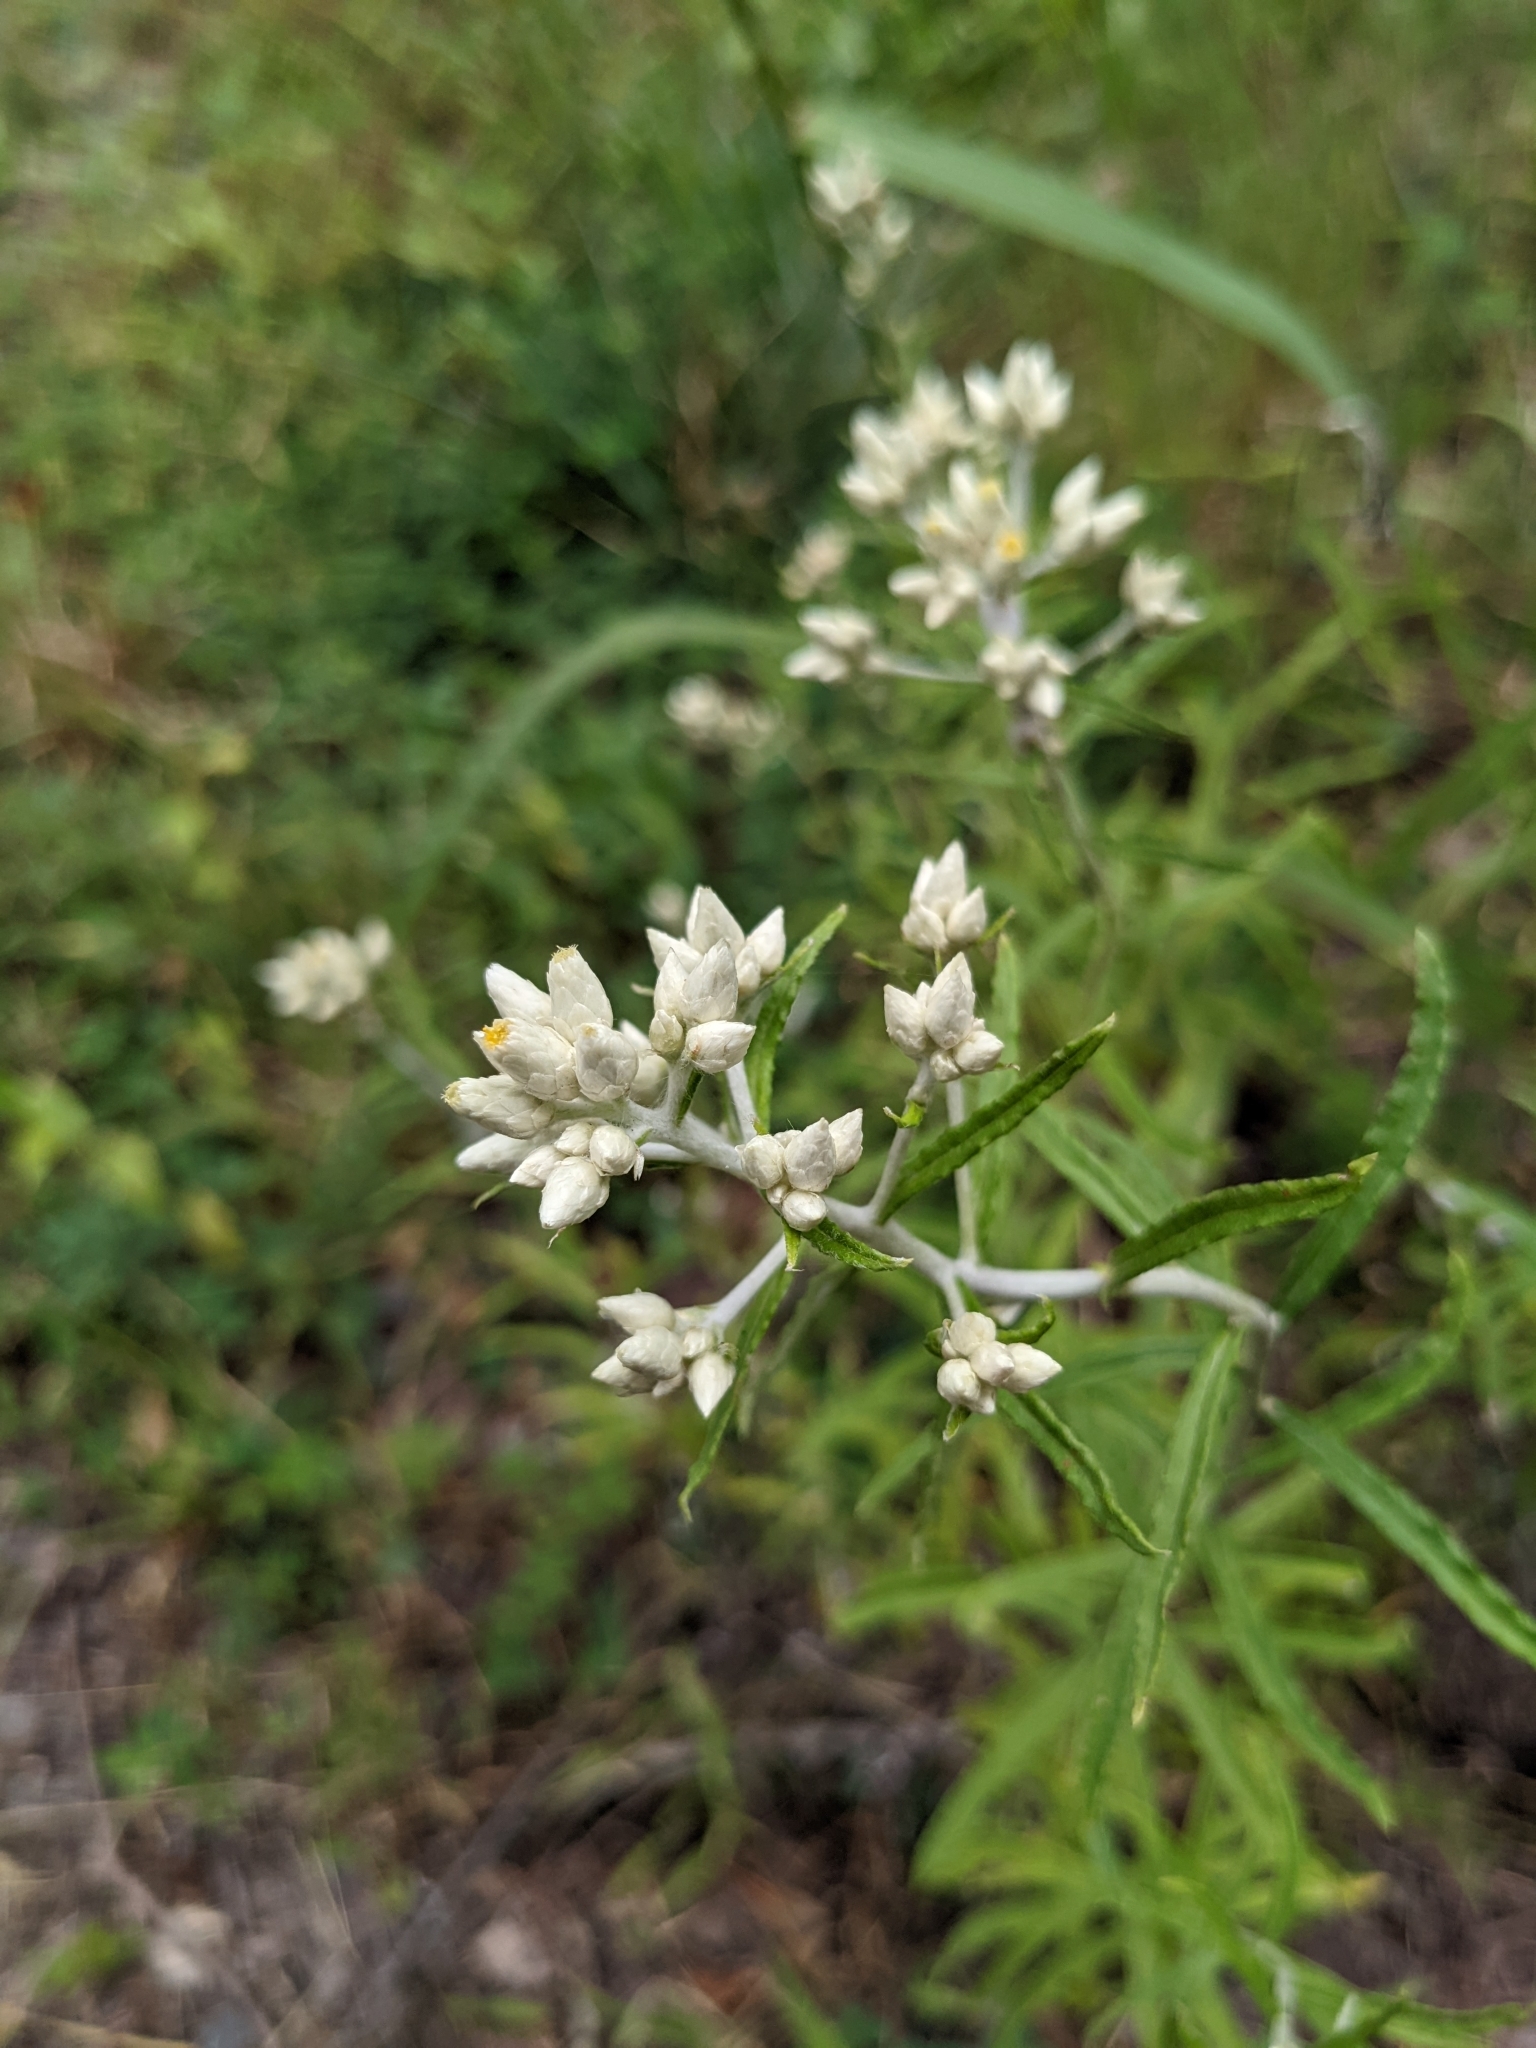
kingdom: Plantae
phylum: Tracheophyta
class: Magnoliopsida
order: Asterales
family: Asteraceae
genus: Pseudognaphalium
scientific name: Pseudognaphalium obtusifolium
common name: Eastern rabbit-tobacco
